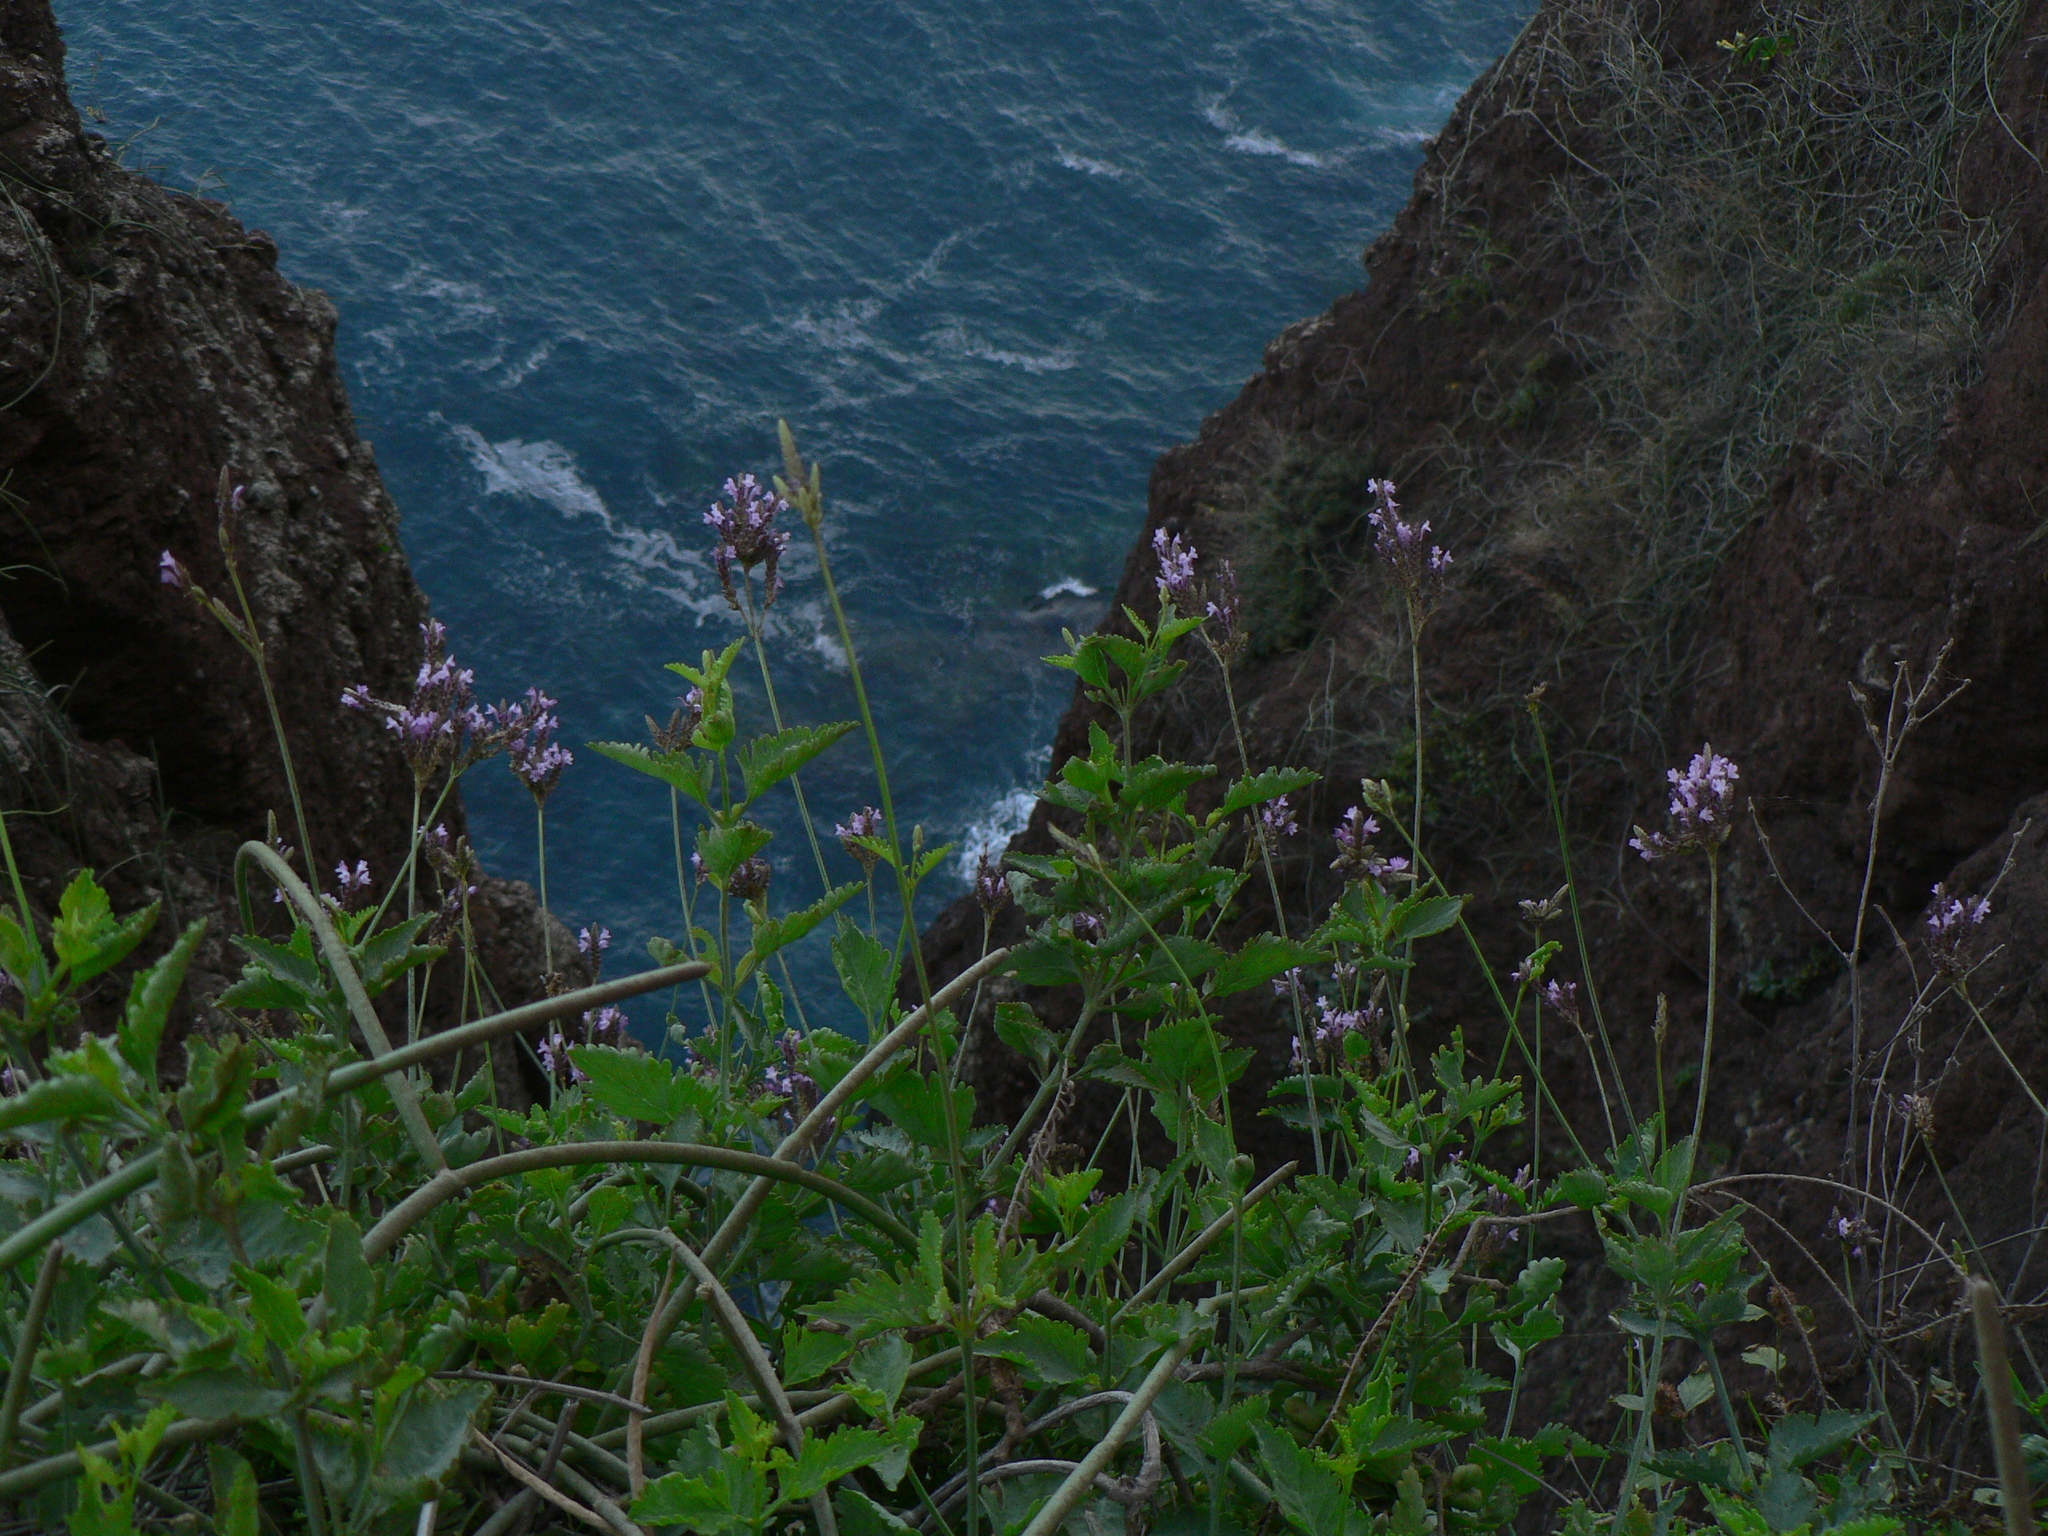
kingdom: Plantae
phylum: Tracheophyta
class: Magnoliopsida
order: Lamiales
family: Lamiaceae
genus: Lavandula
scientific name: Lavandula rotundifolia
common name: Round-leaf lavender
